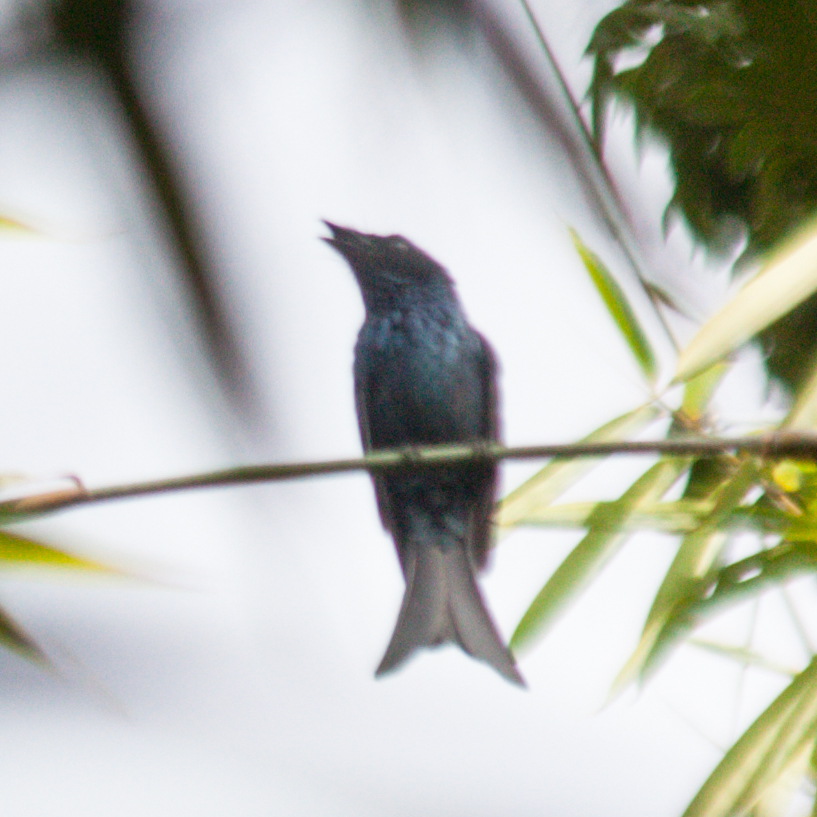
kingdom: Animalia
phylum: Chordata
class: Aves
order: Passeriformes
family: Dicruridae
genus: Dicrurus
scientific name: Dicrurus aeneus
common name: Bronzed drongo
